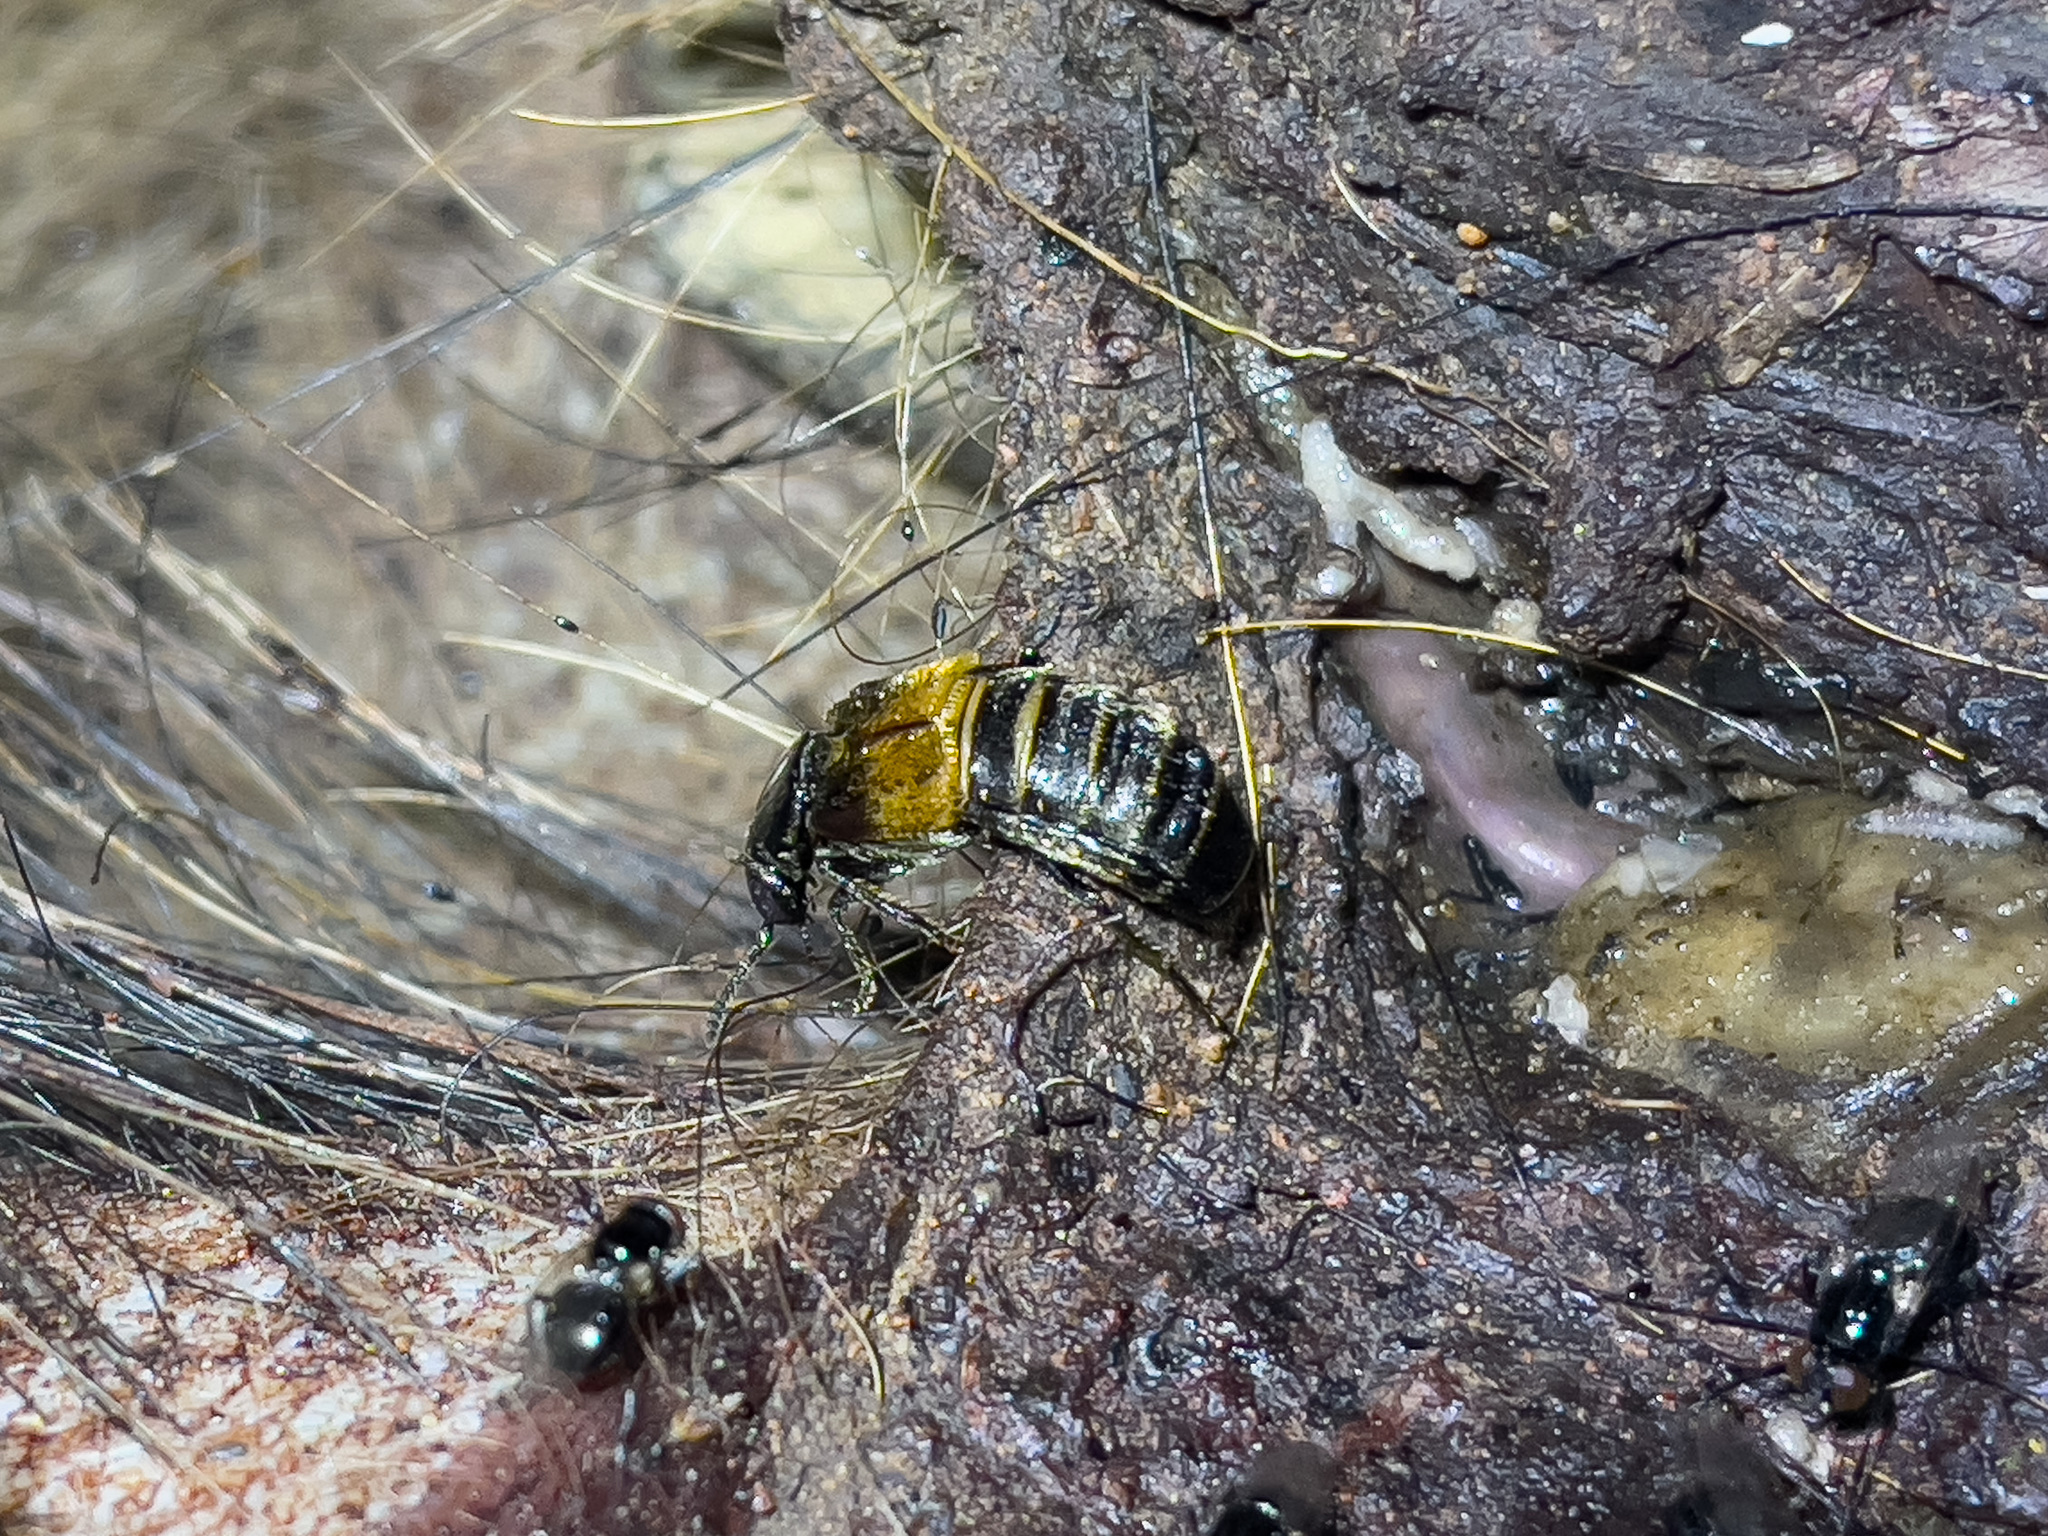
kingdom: Animalia
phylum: Arthropoda
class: Insecta
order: Coleoptera
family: Staphylinidae
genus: Creophilus
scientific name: Creophilus flavipennis
